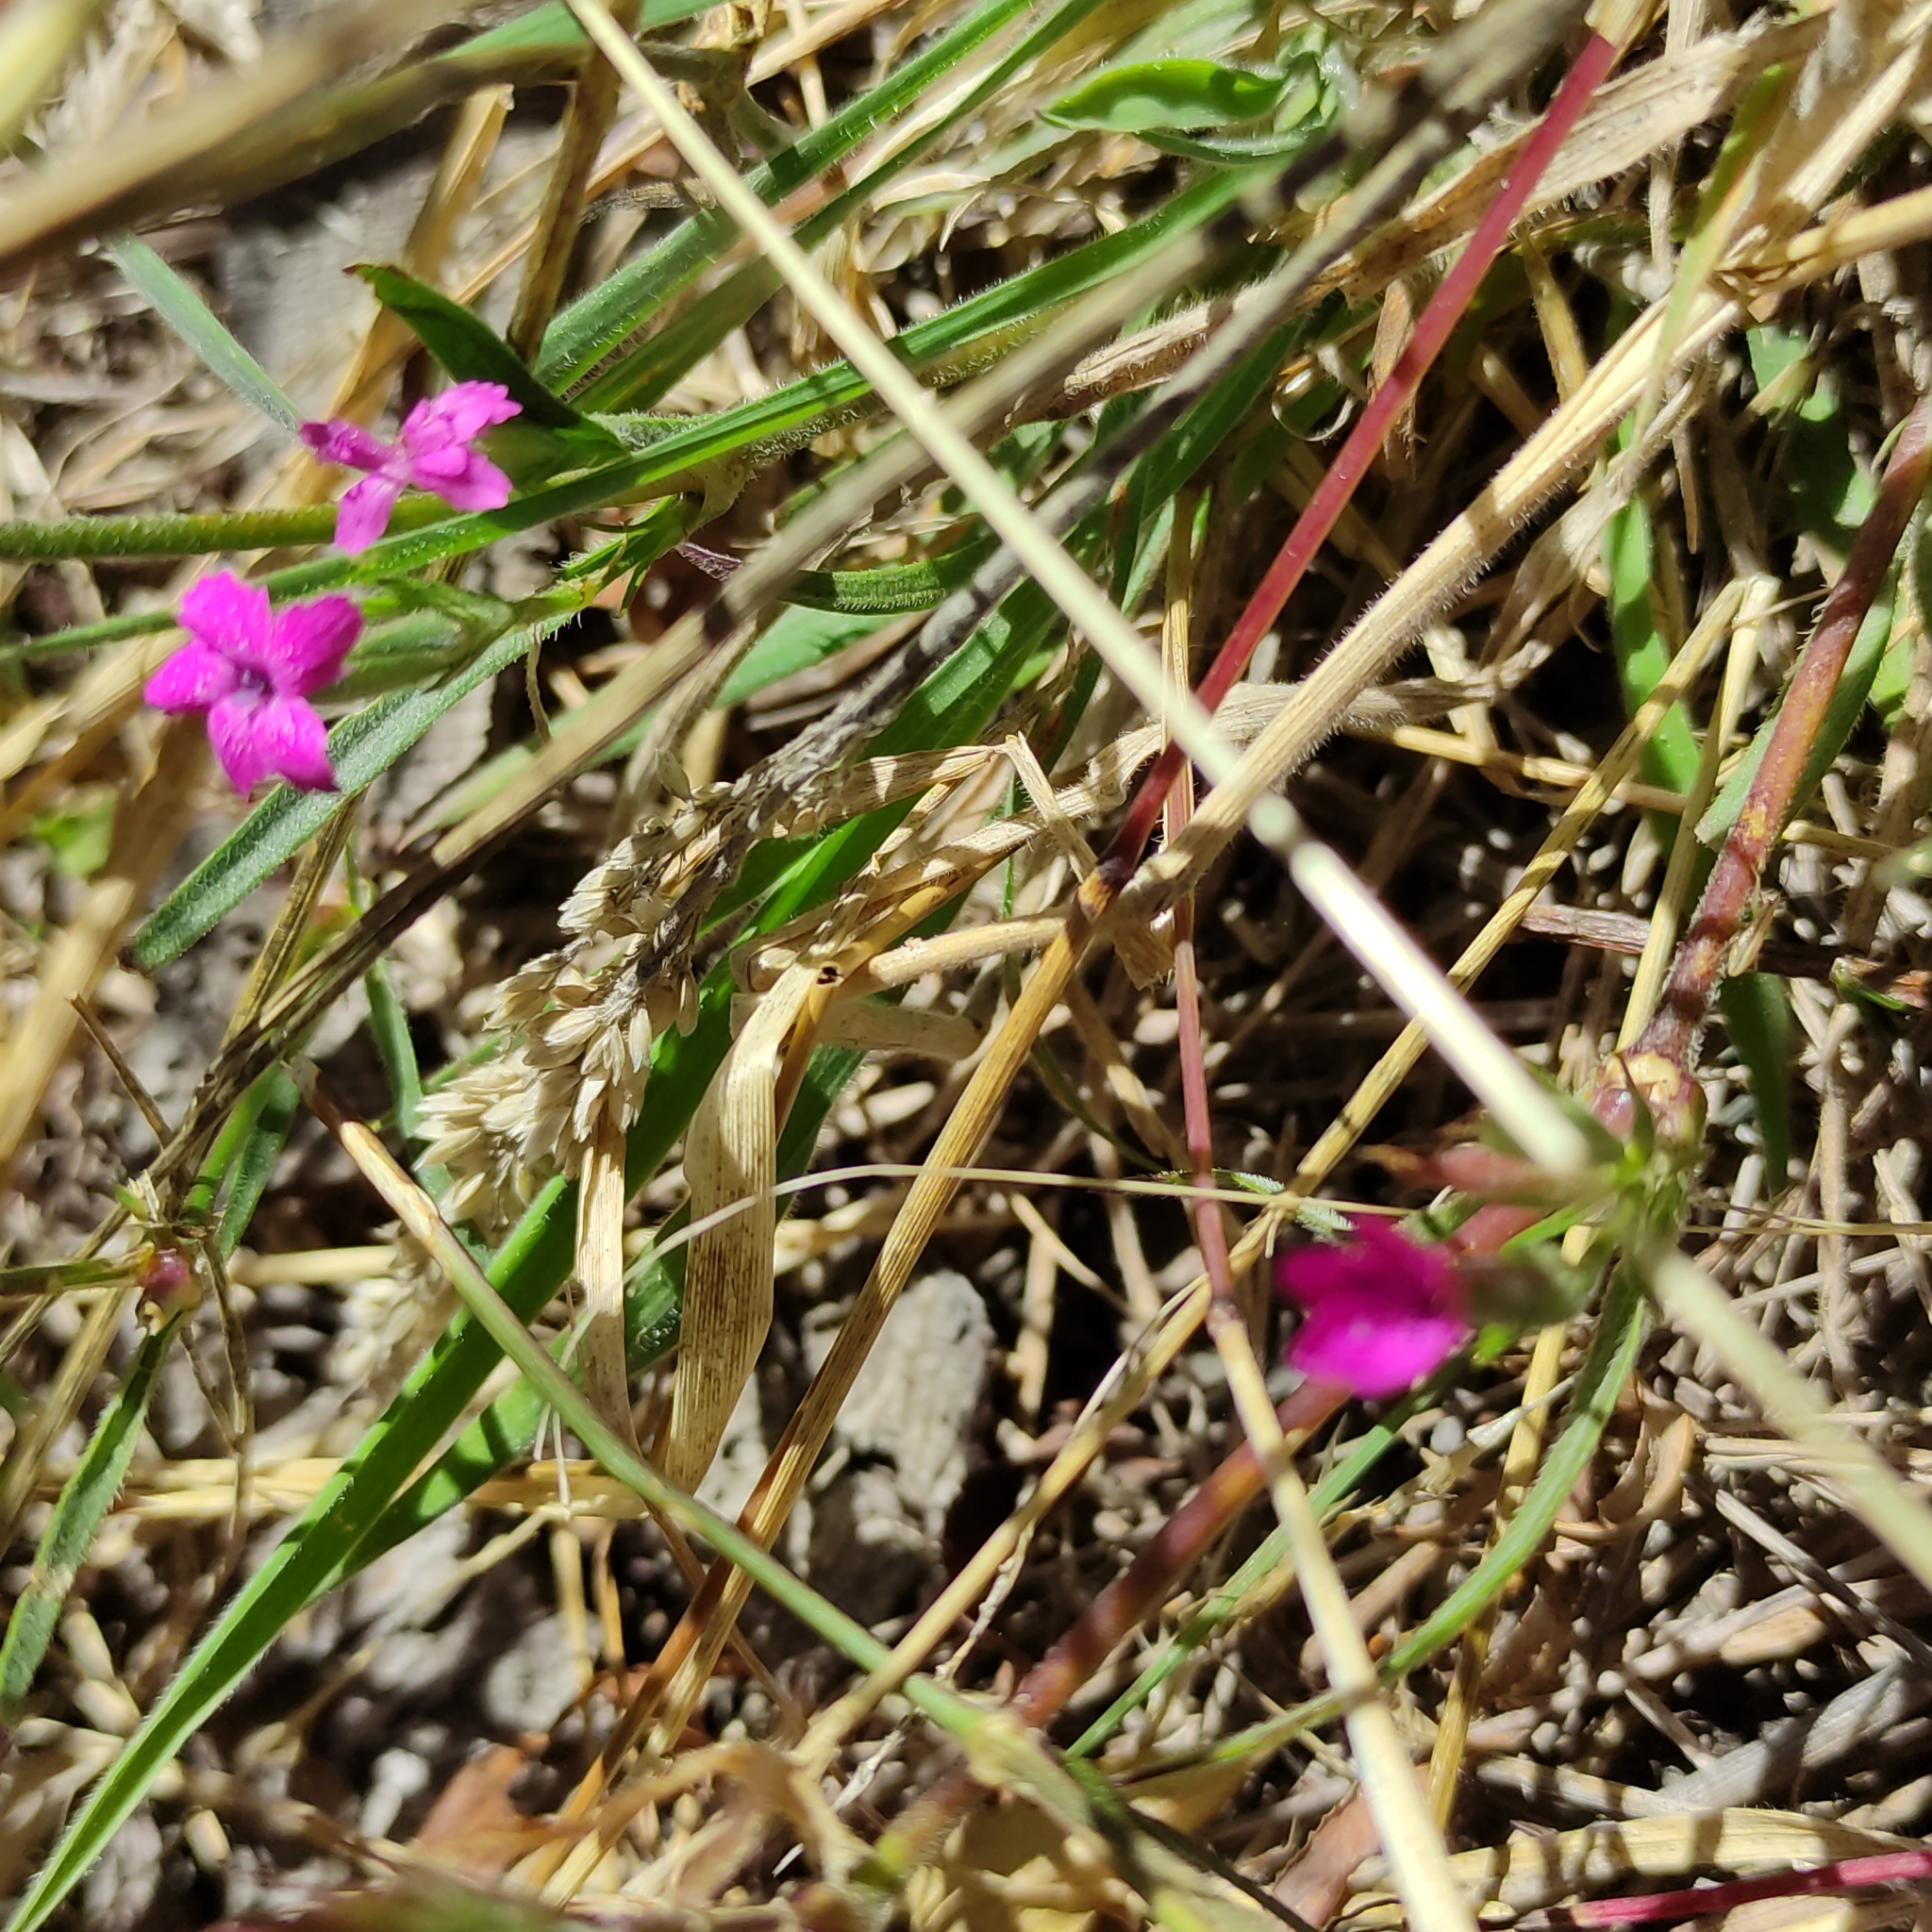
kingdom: Plantae
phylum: Tracheophyta
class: Magnoliopsida
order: Caryophyllales
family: Caryophyllaceae
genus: Dianthus
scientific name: Dianthus armeria
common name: Deptford pink
